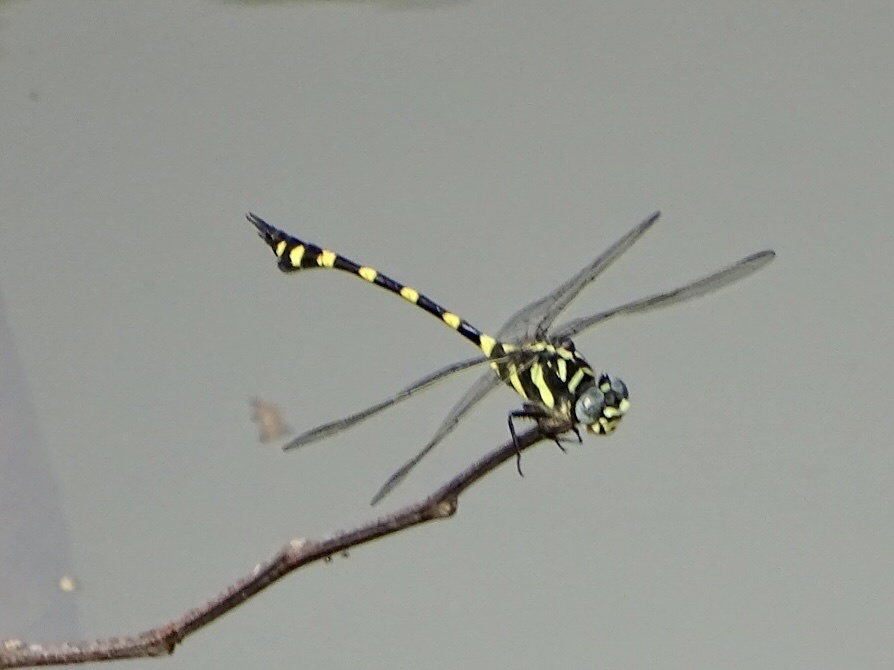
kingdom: Animalia
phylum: Arthropoda
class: Insecta
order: Odonata
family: Gomphidae
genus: Ictinogomphus
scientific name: Ictinogomphus decoratus
